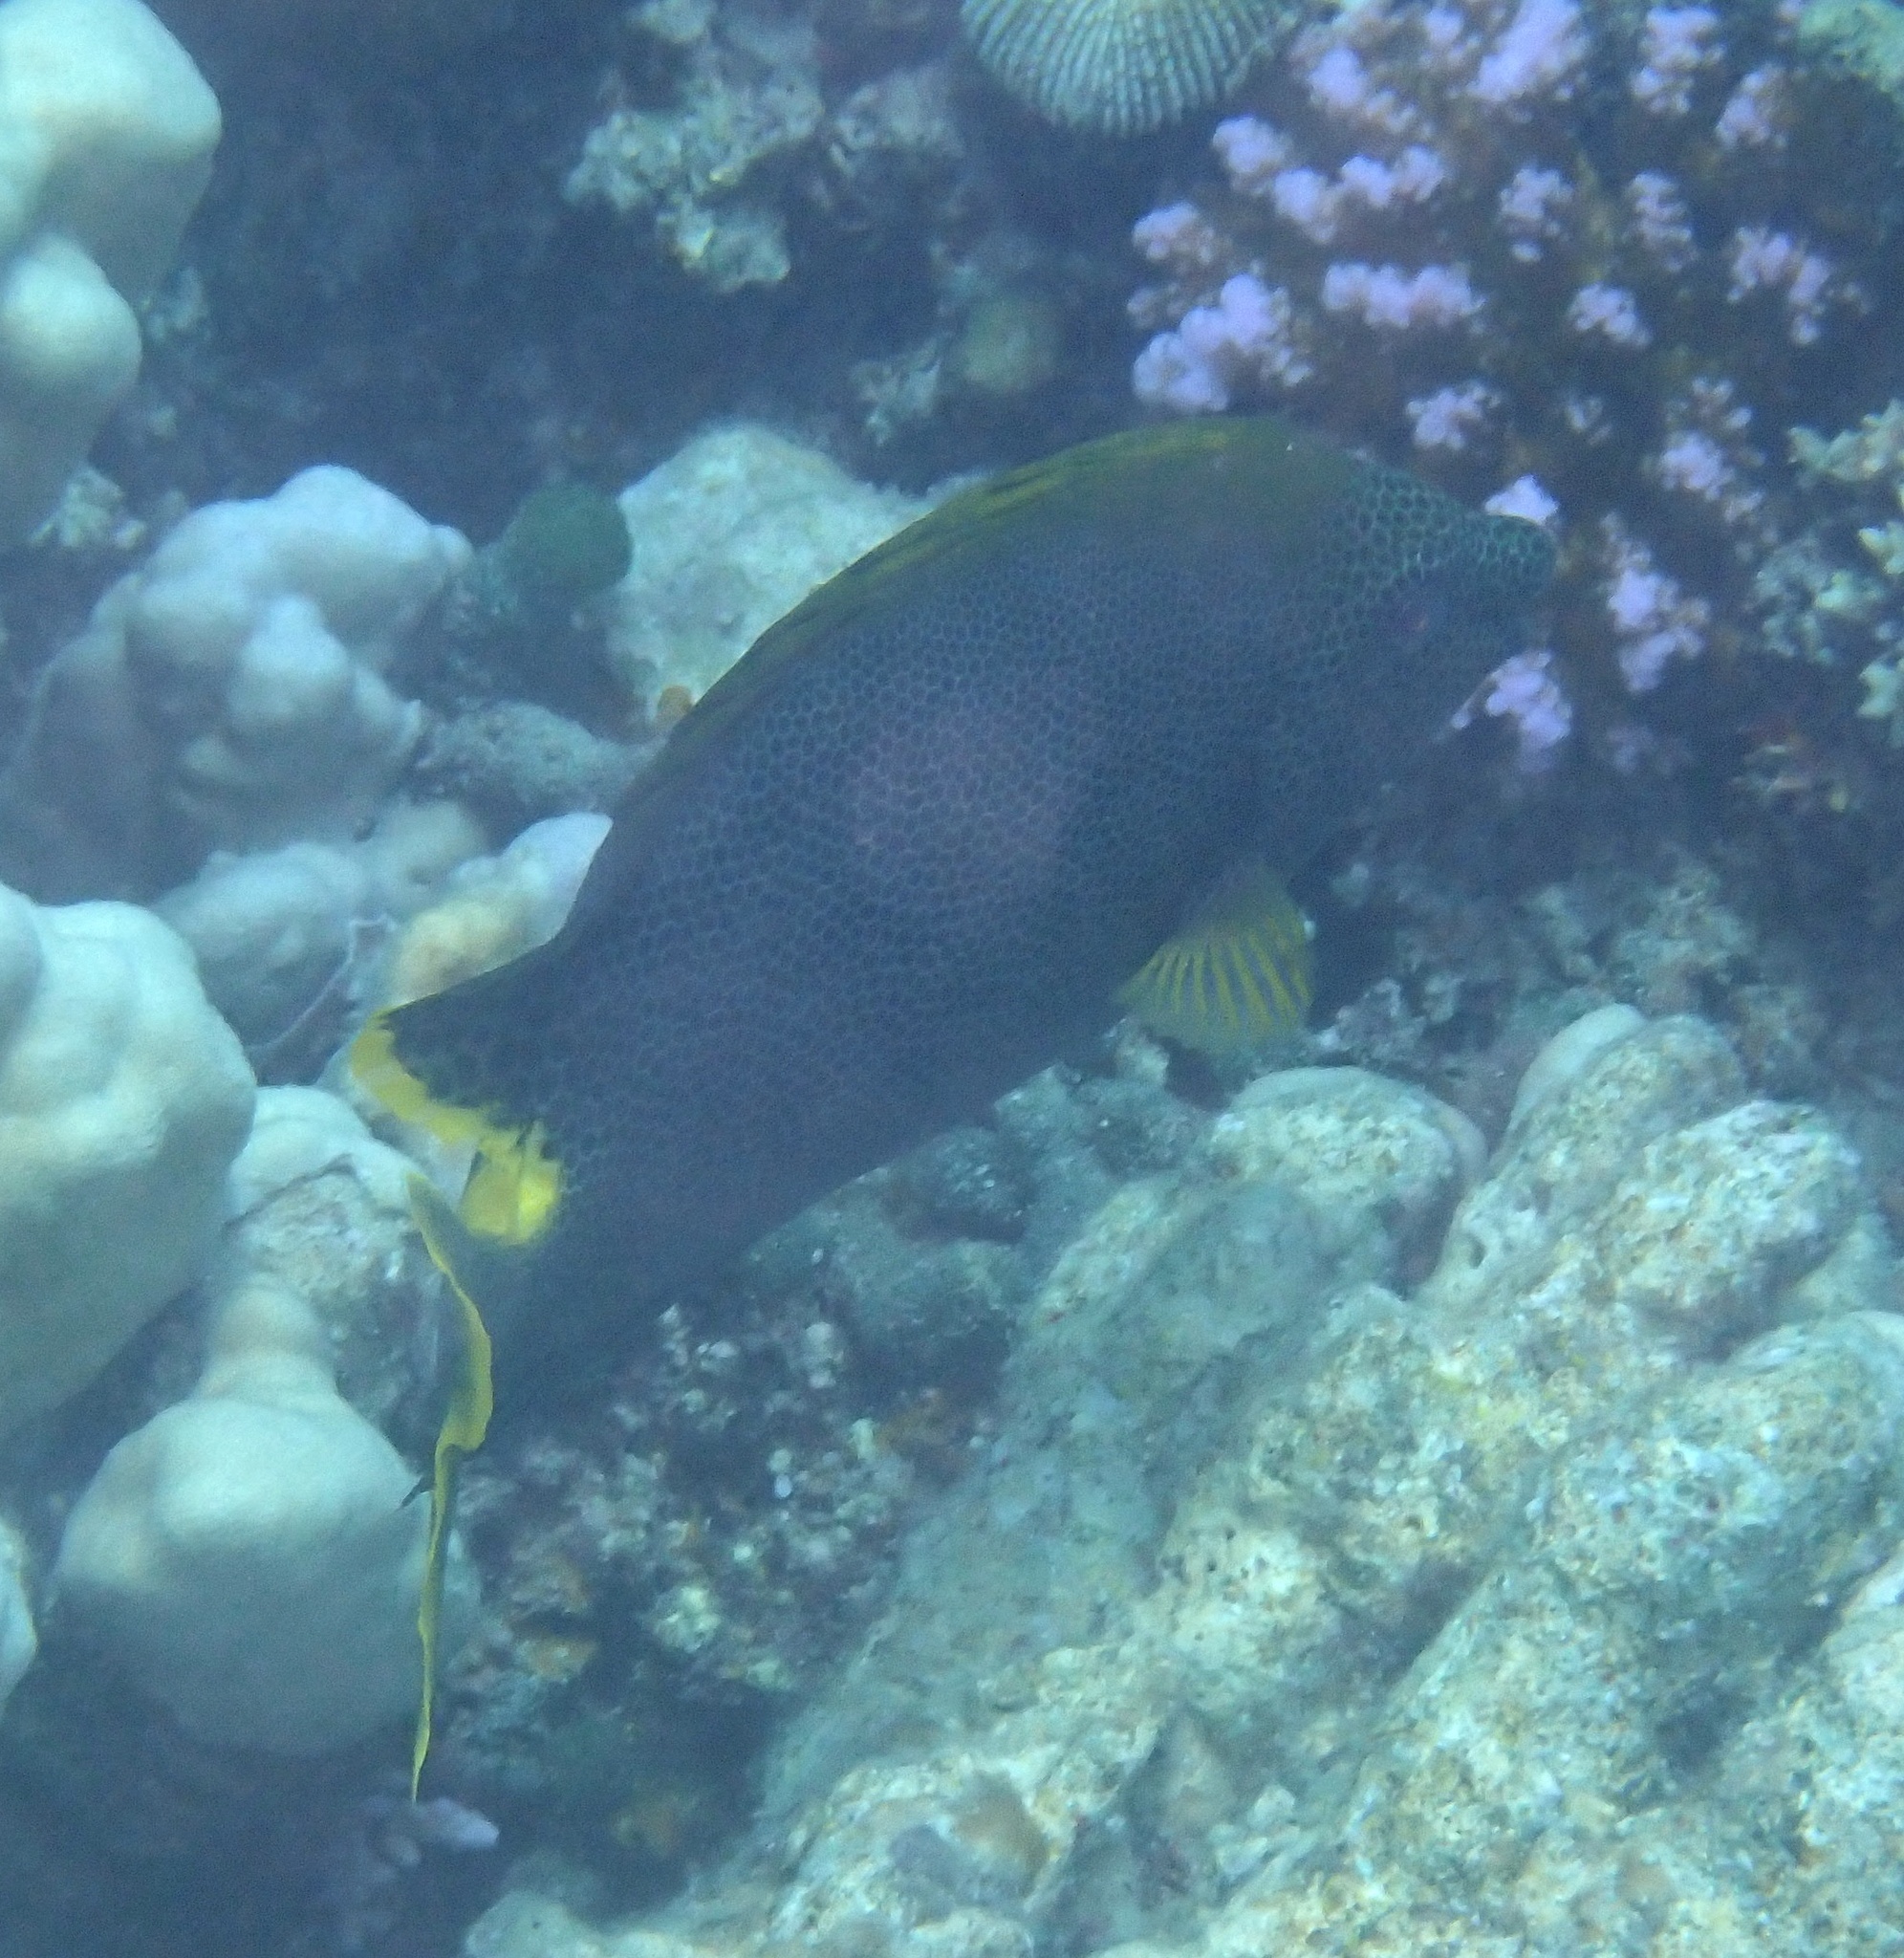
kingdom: Animalia
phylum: Chordata
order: Perciformes
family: Siganidae
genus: Siganus
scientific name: Siganus stellatus
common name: Brown-spotted spinefoot
